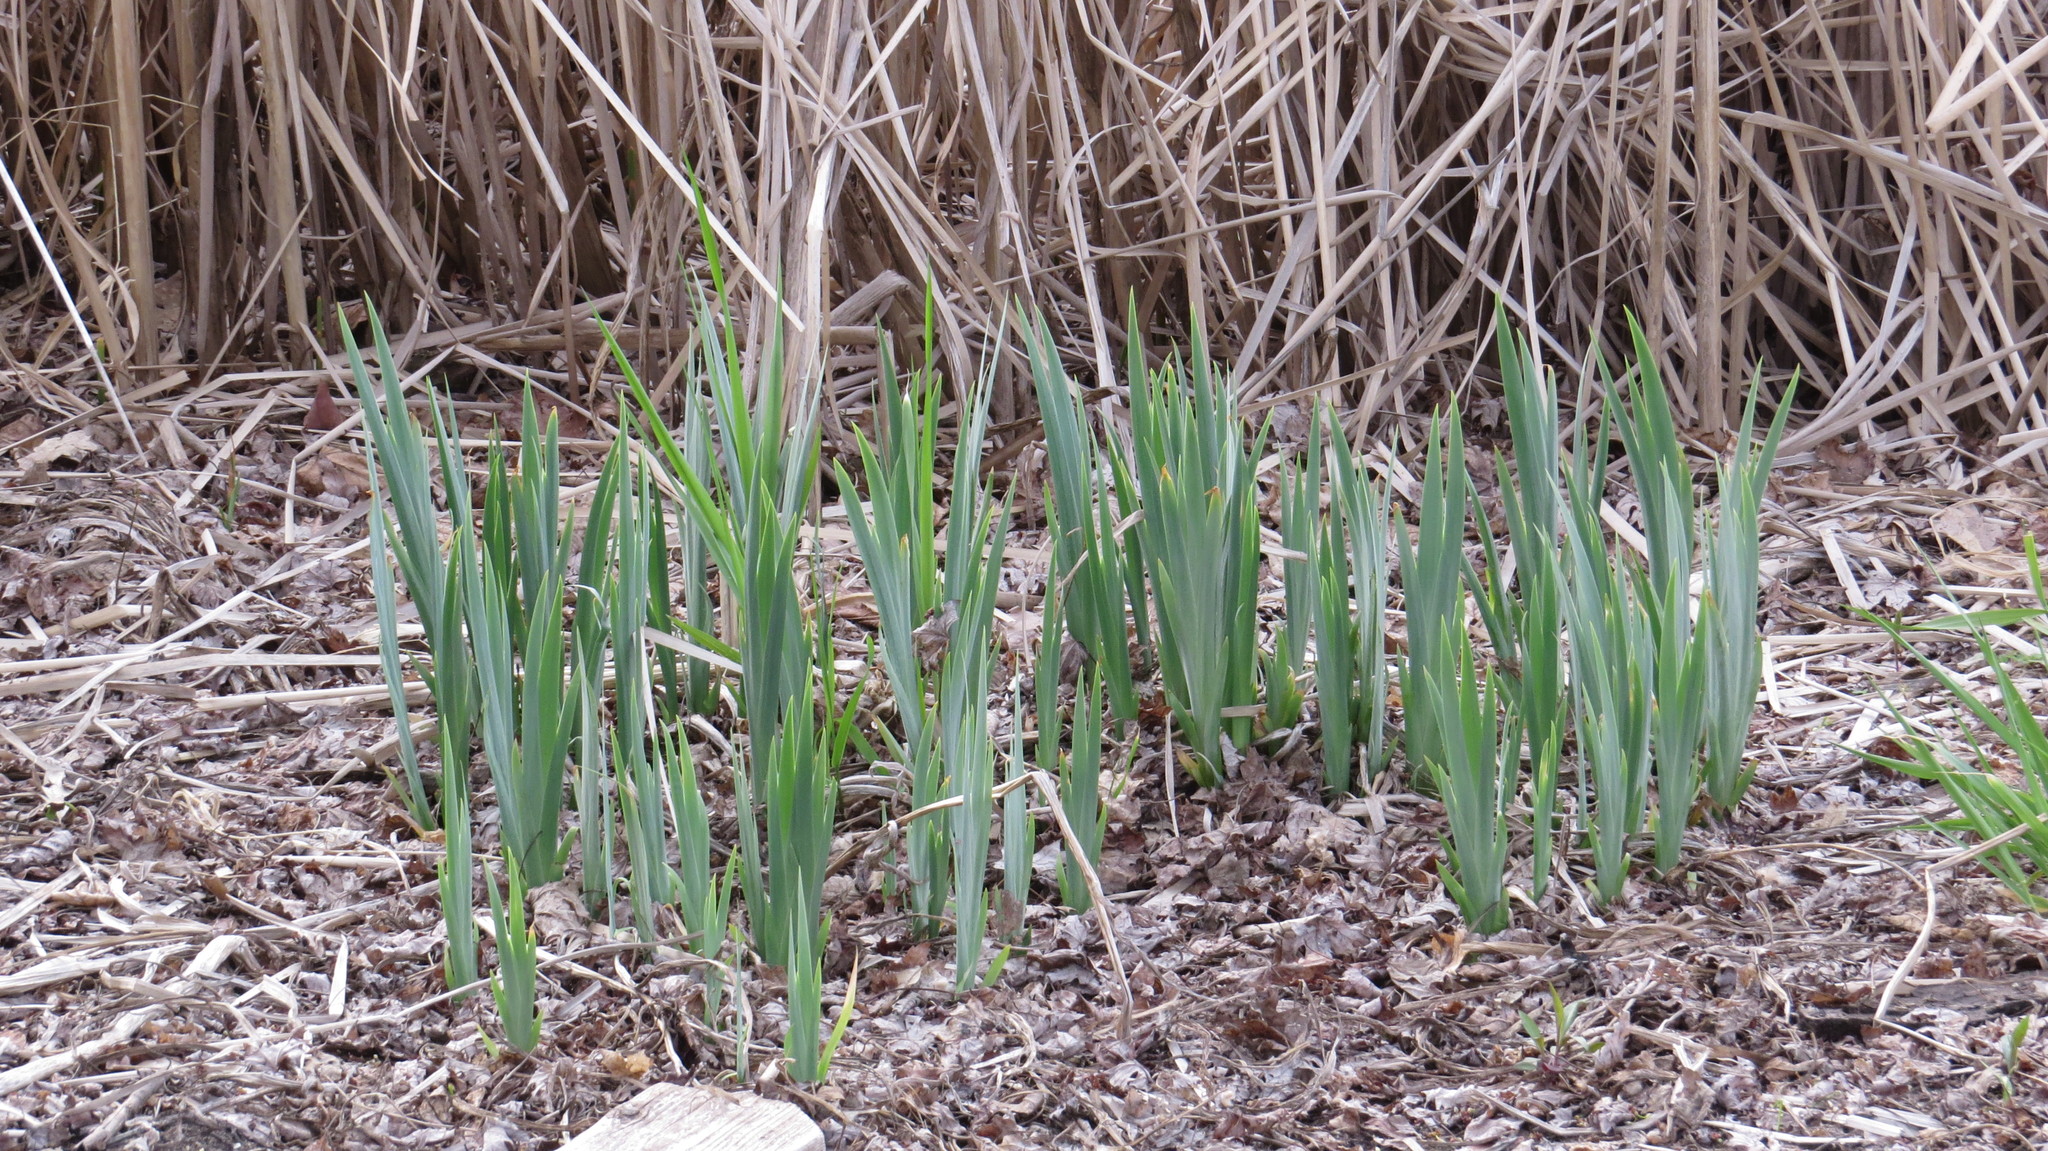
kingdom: Plantae
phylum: Tracheophyta
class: Liliopsida
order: Asparagales
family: Iridaceae
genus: Iris
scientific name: Iris pseudacorus
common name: Yellow flag
